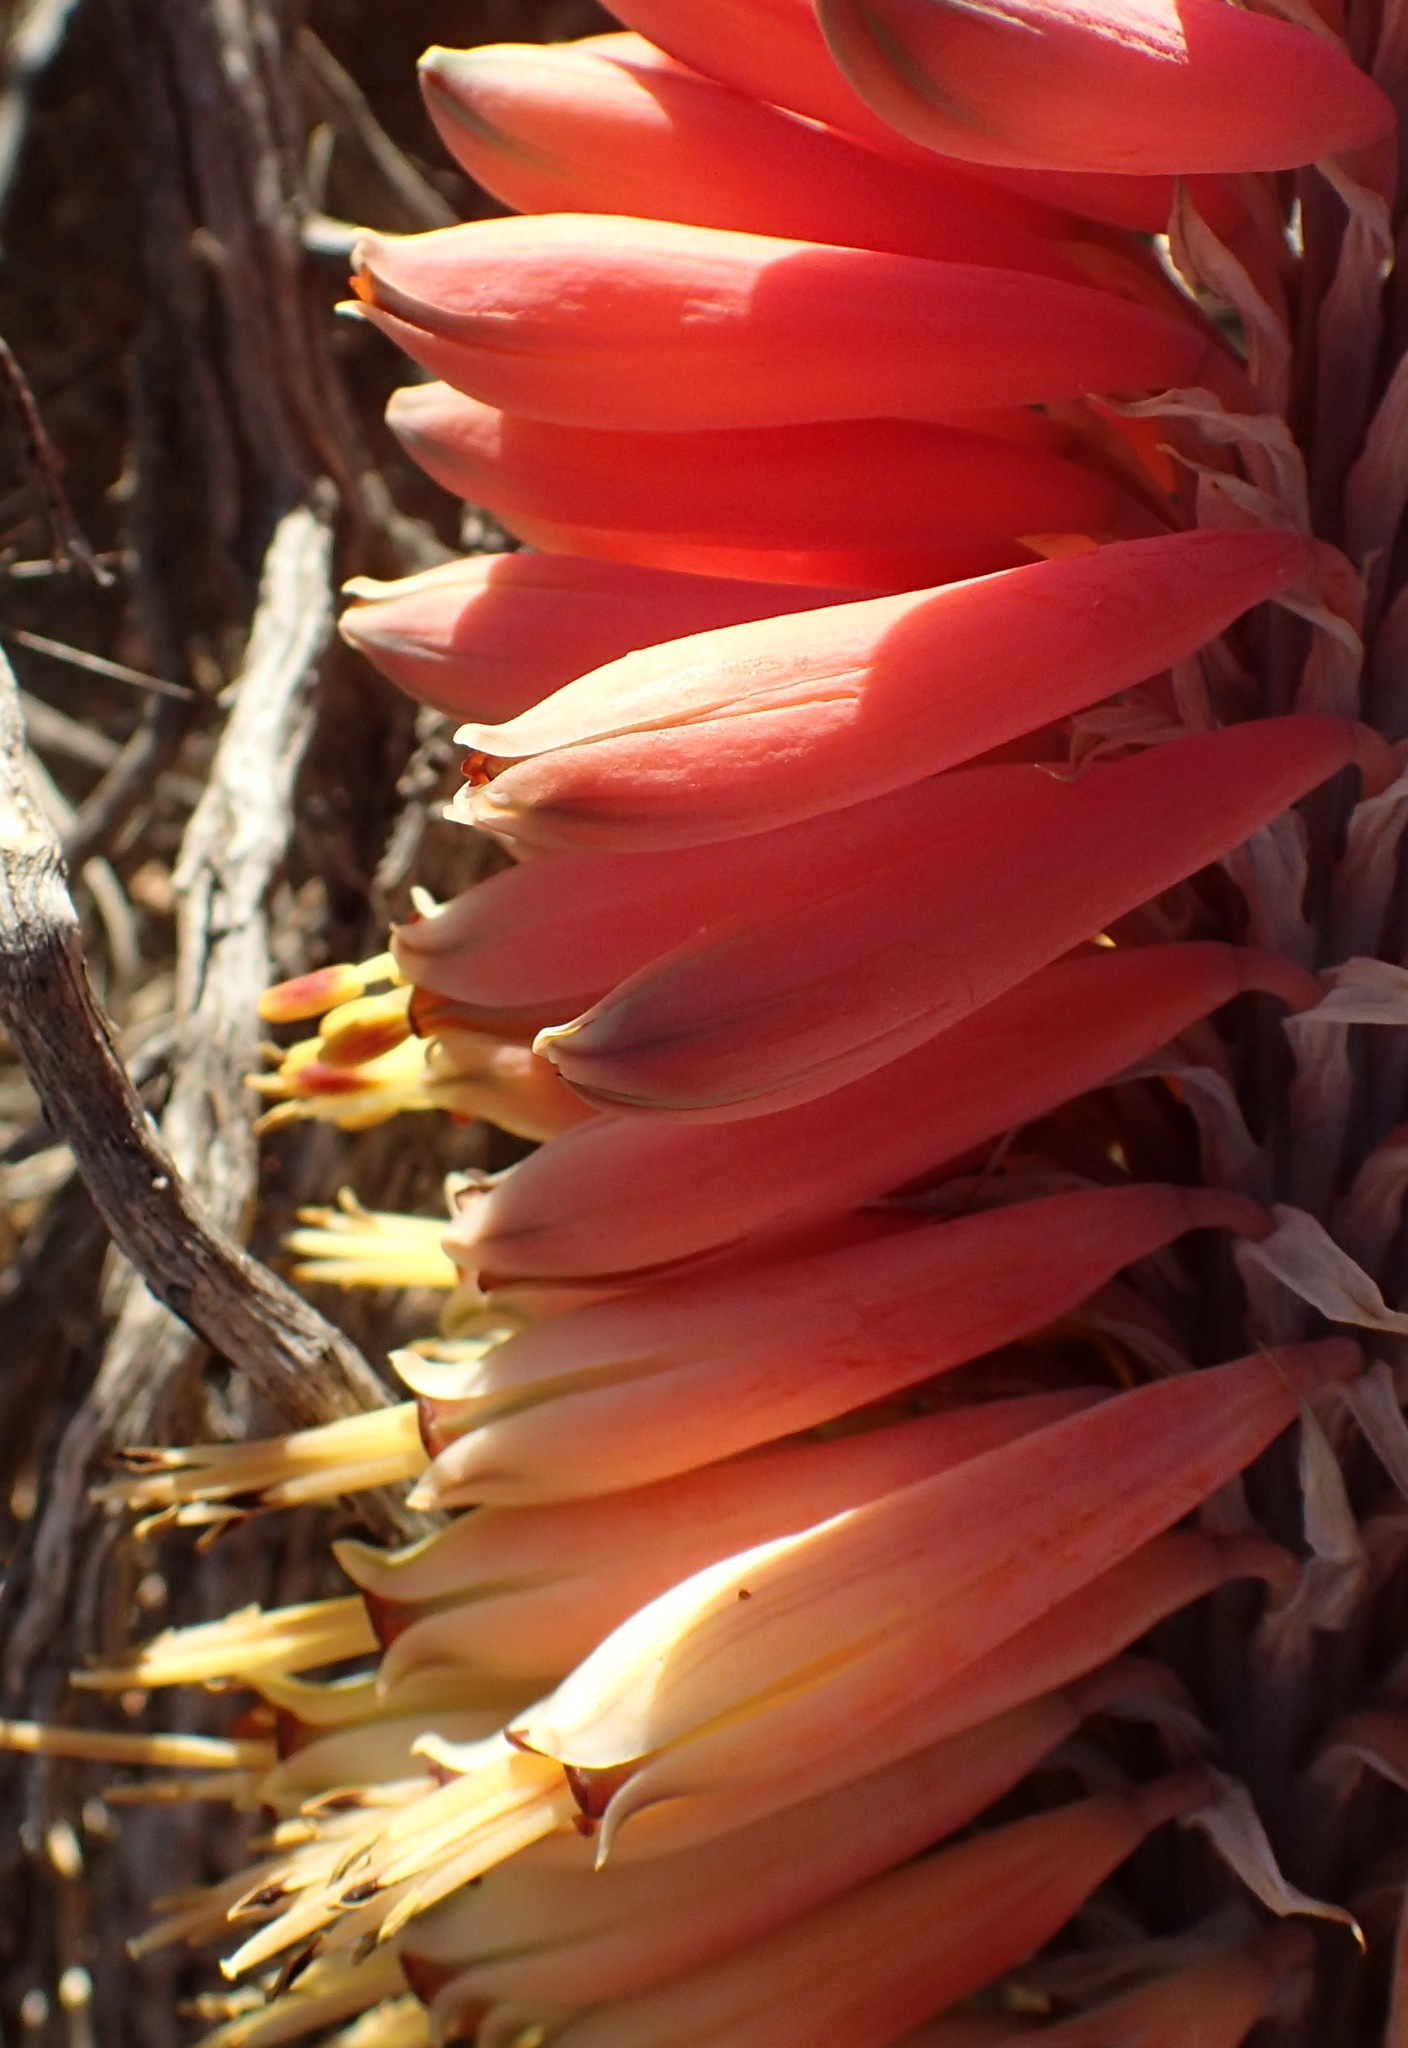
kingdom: Plantae
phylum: Tracheophyta
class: Liliopsida
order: Asparagales
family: Asphodelaceae
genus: Aloe
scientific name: Aloe claviflora
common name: Cannon aloe
